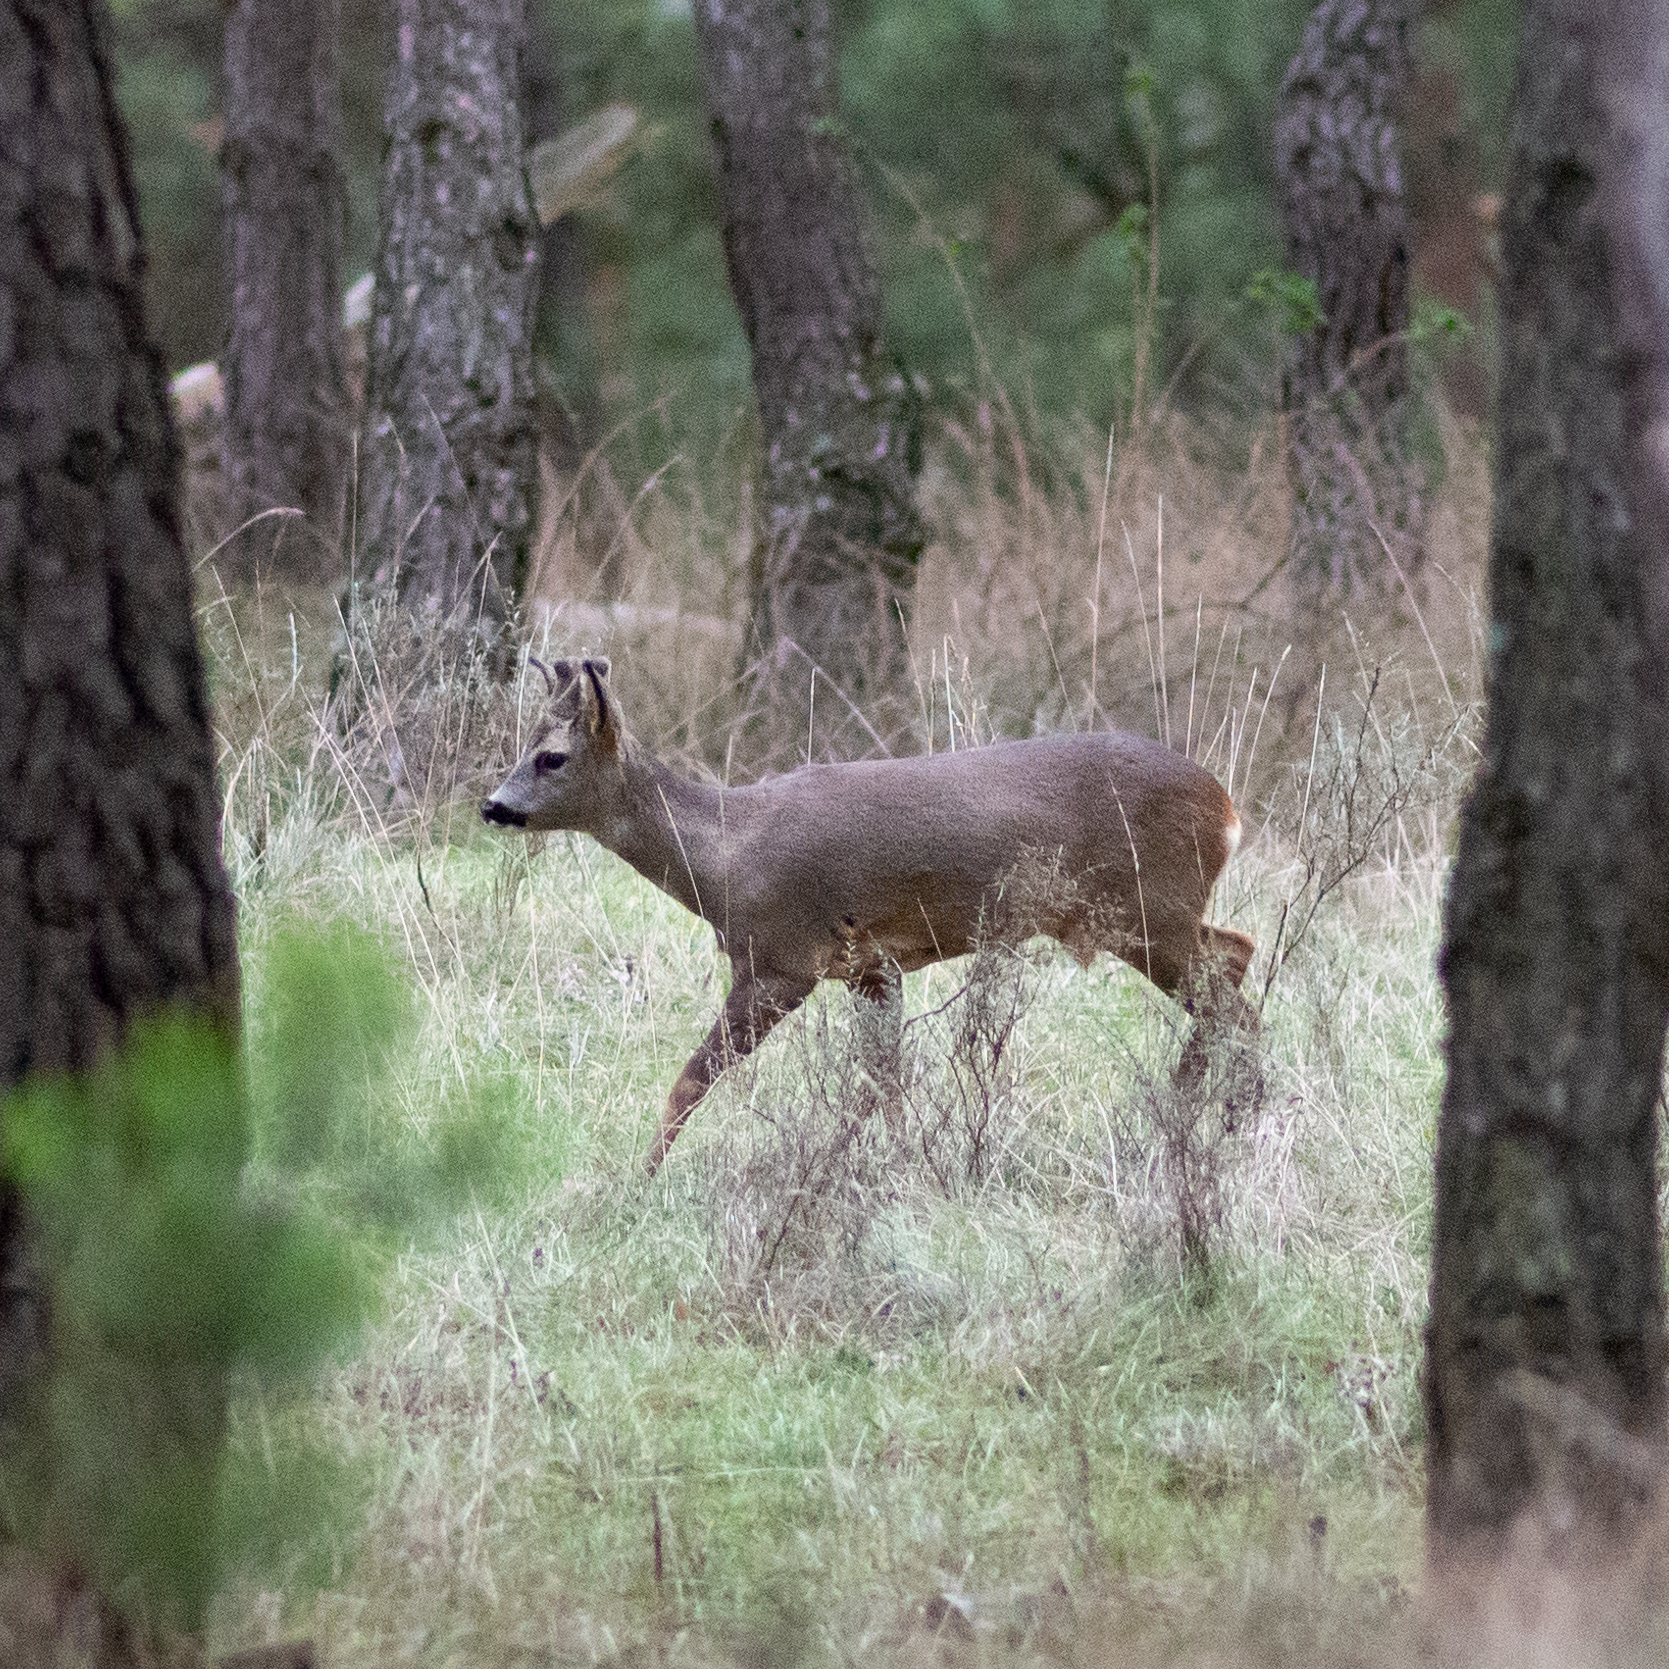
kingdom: Animalia
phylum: Chordata
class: Mammalia
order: Artiodactyla
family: Cervidae
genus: Capreolus
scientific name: Capreolus capreolus
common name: Western roe deer
